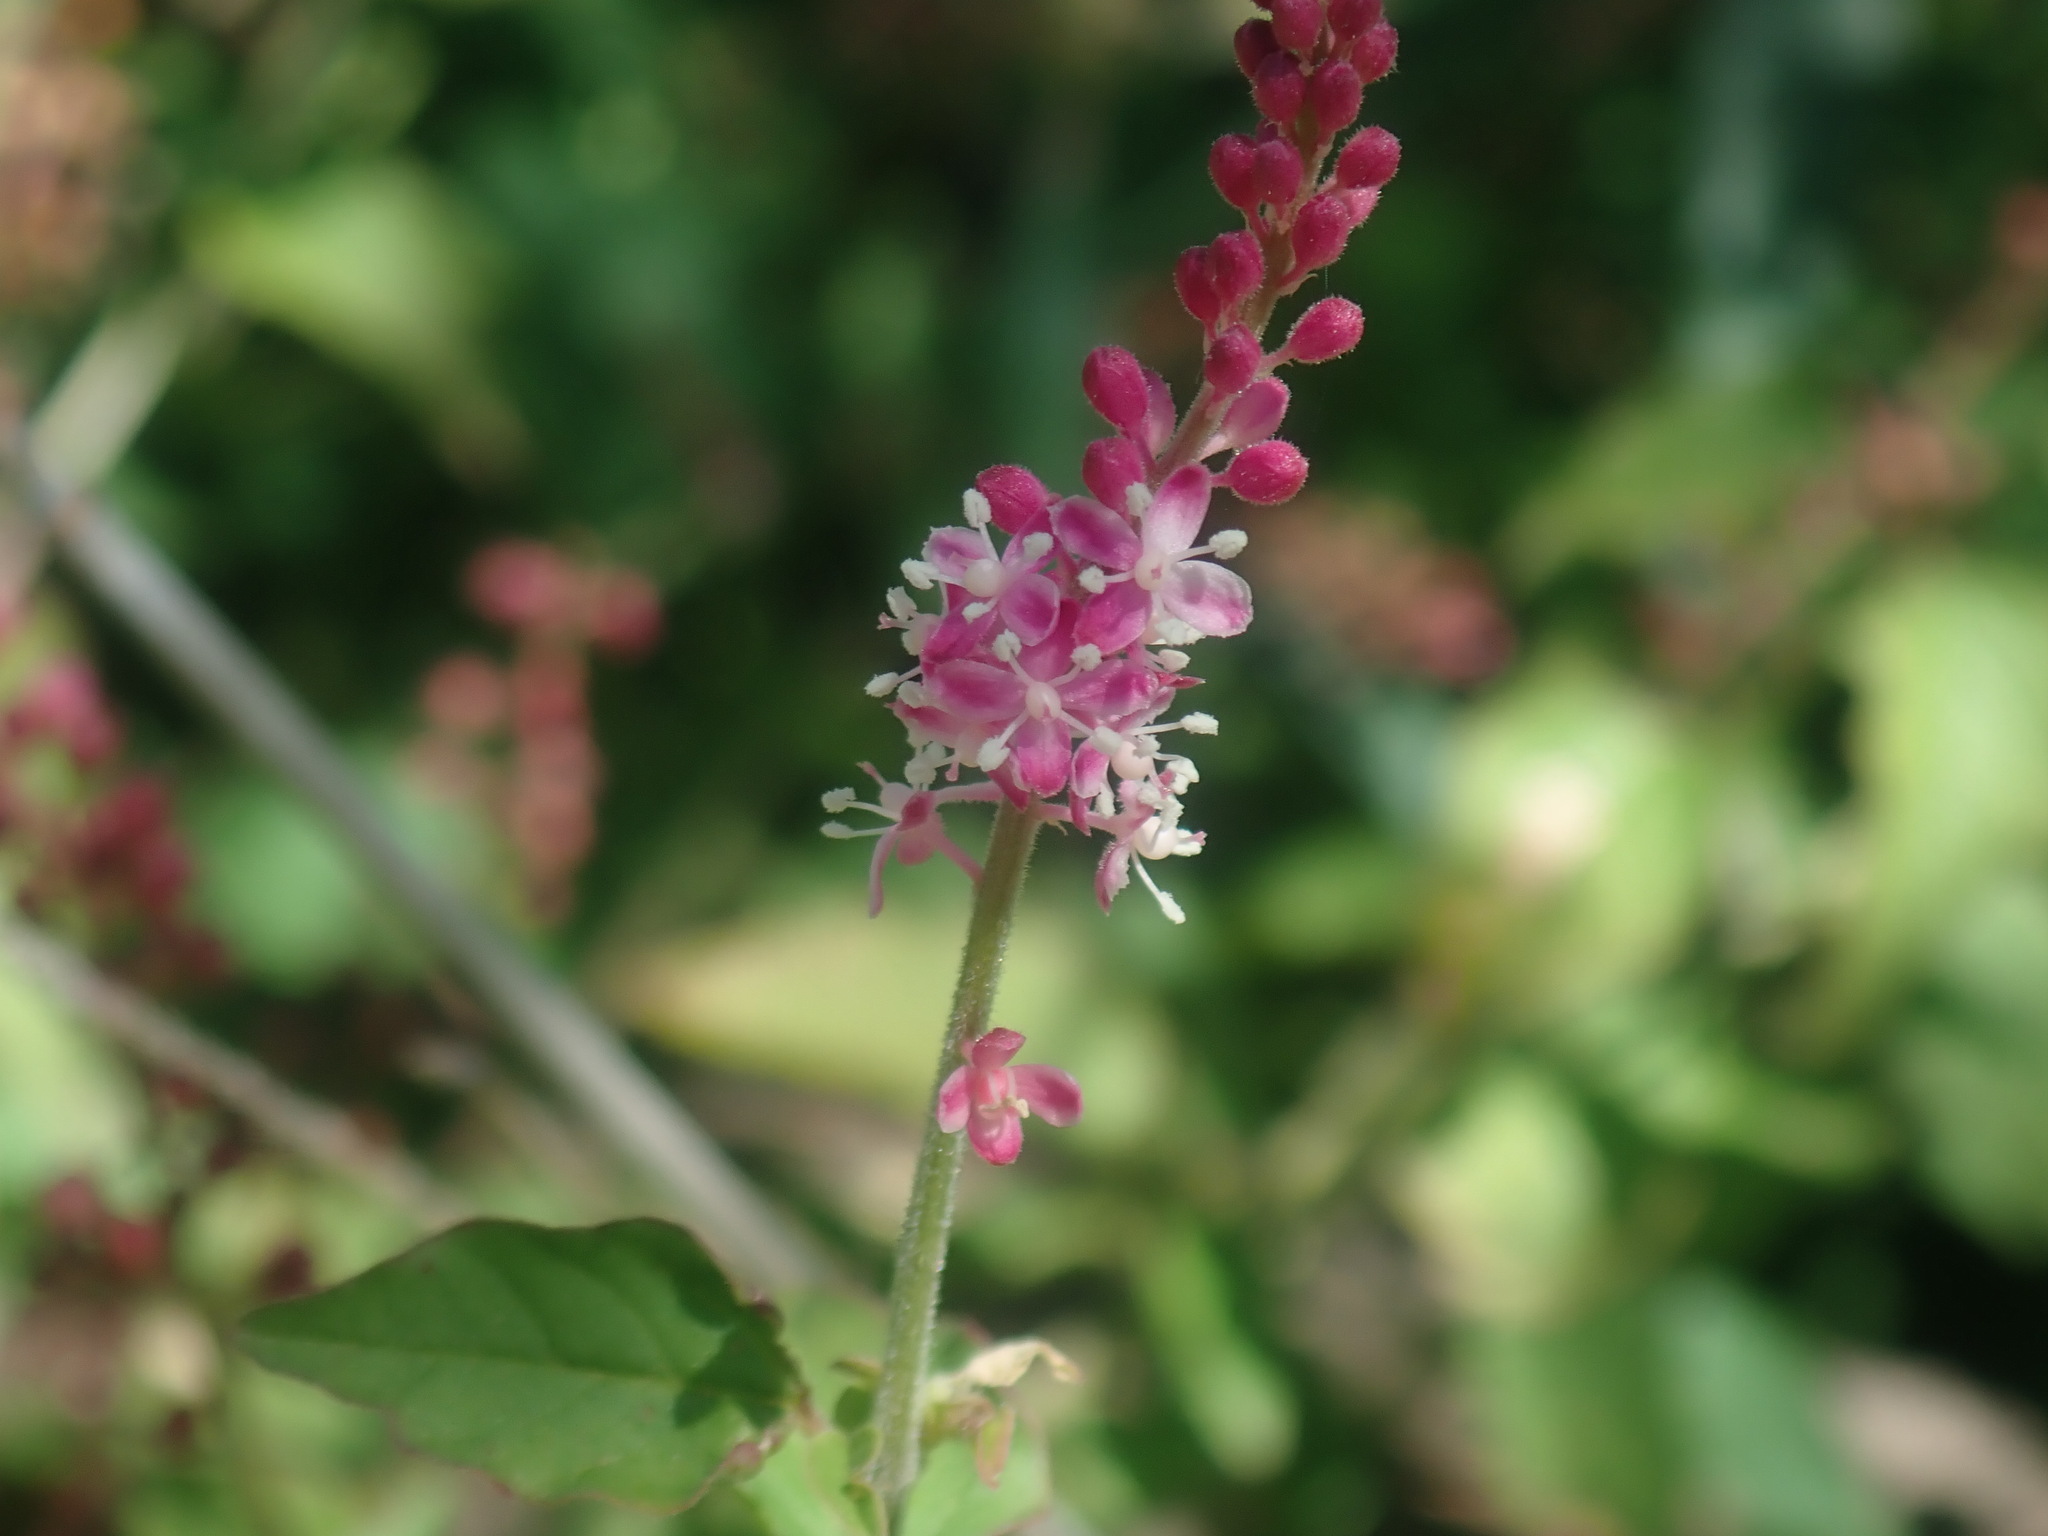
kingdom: Plantae
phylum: Tracheophyta
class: Magnoliopsida
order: Caryophyllales
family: Phytolaccaceae
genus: Rivina
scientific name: Rivina humilis
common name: Rougeplant
